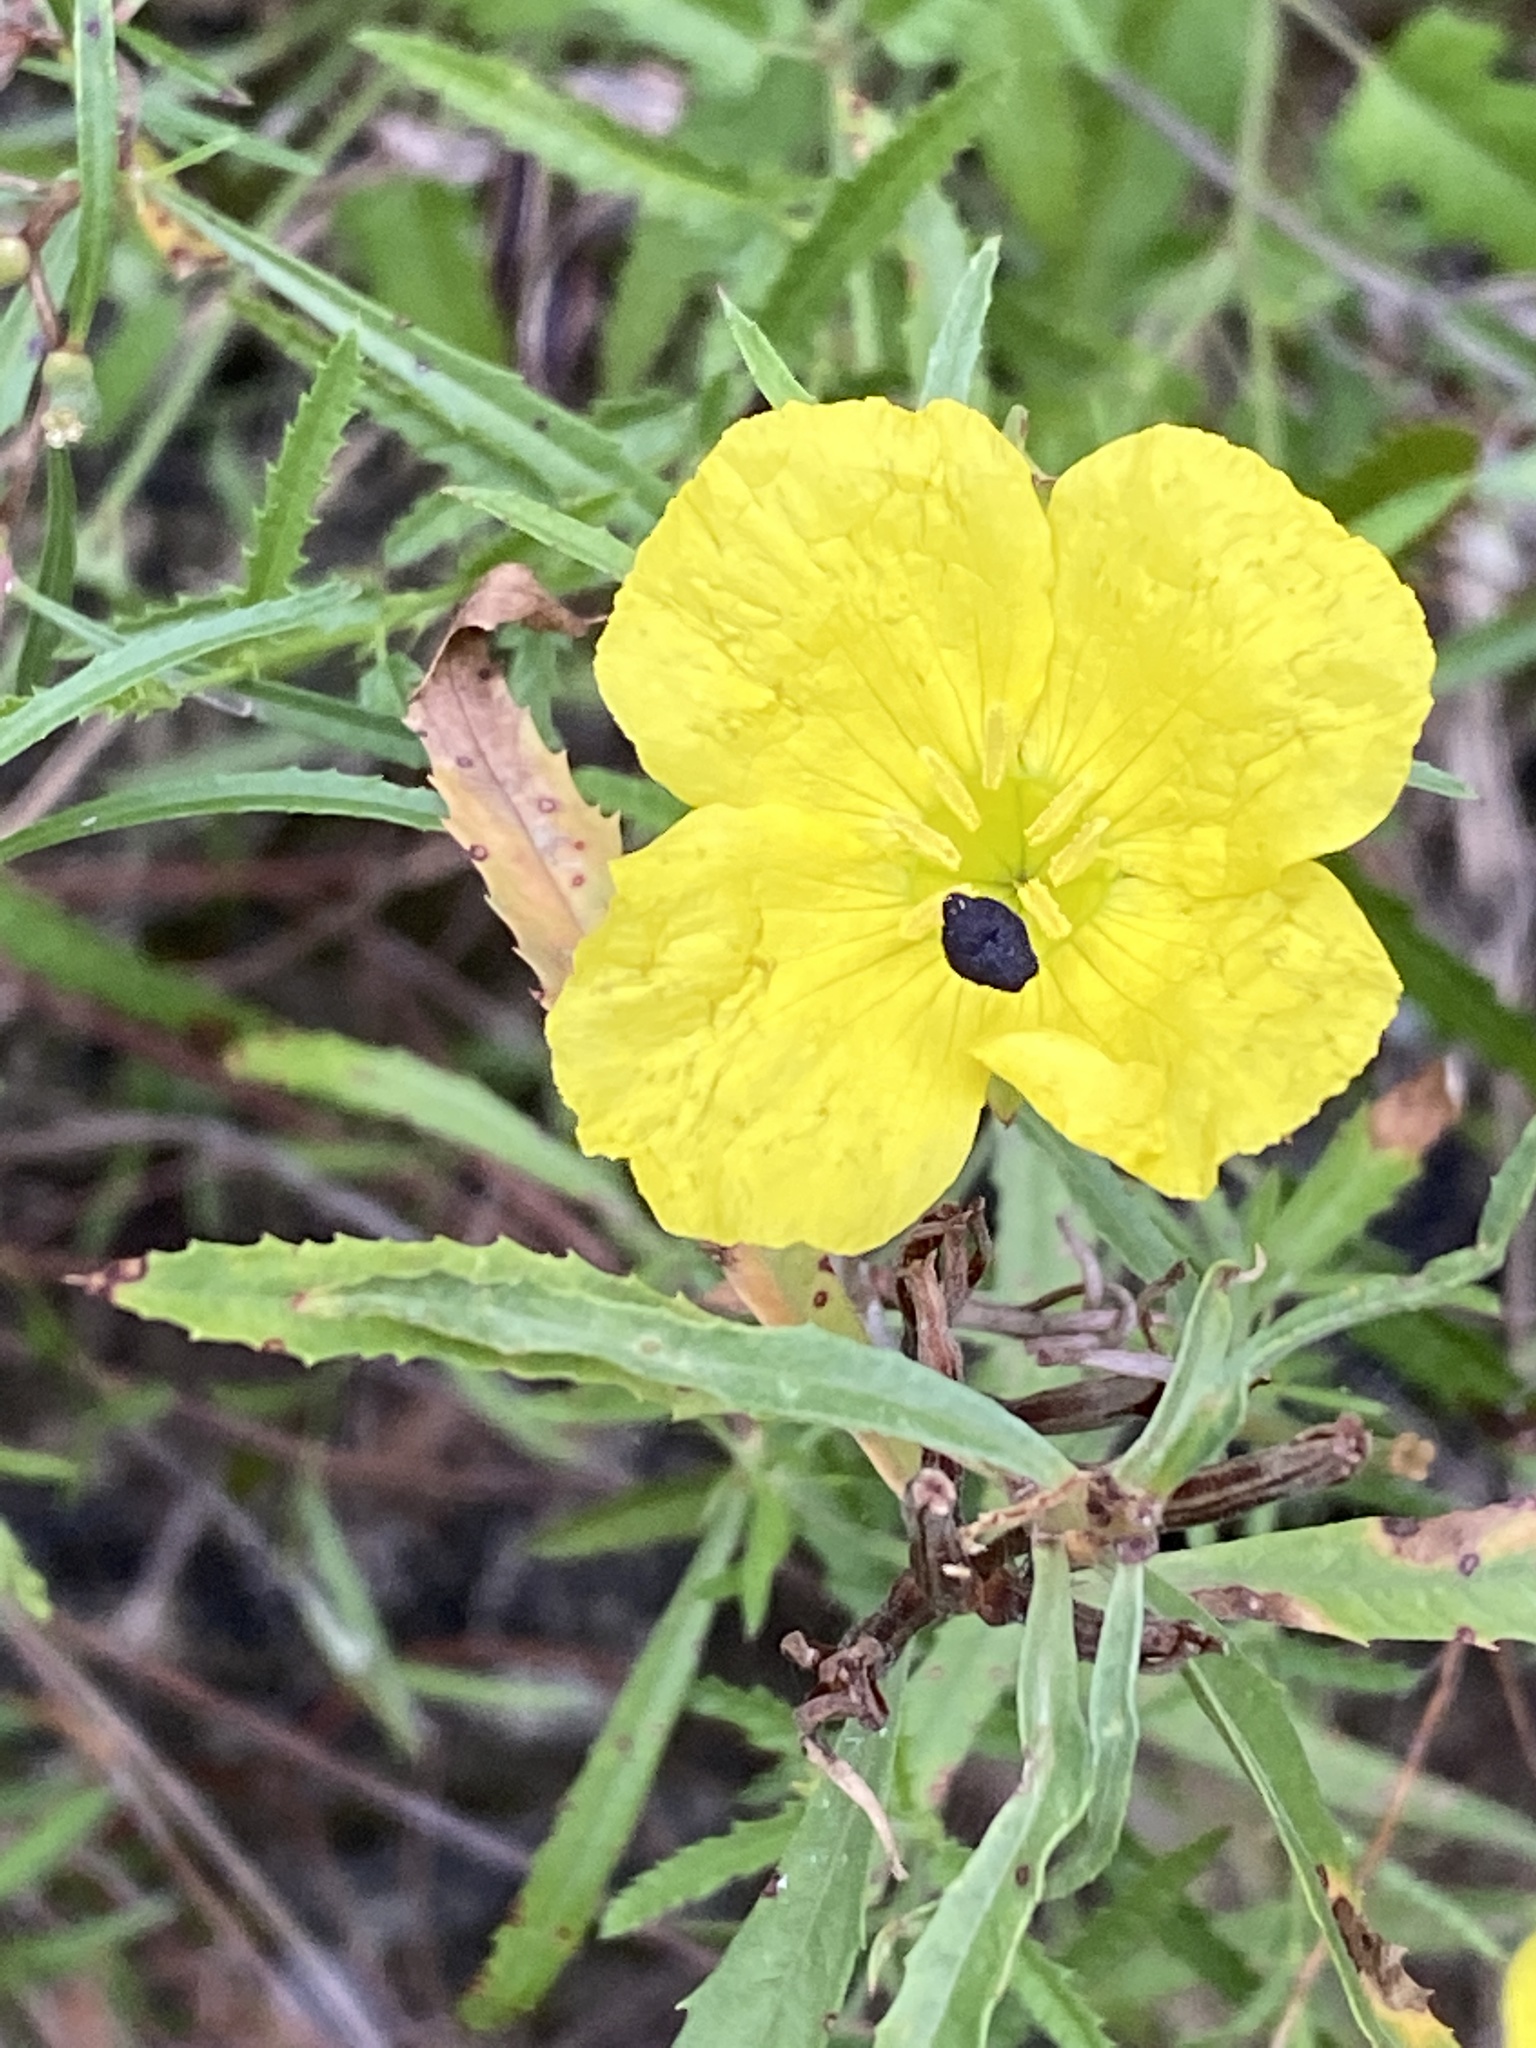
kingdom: Plantae
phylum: Tracheophyta
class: Magnoliopsida
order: Myrtales
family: Onagraceae
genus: Oenothera
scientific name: Oenothera
